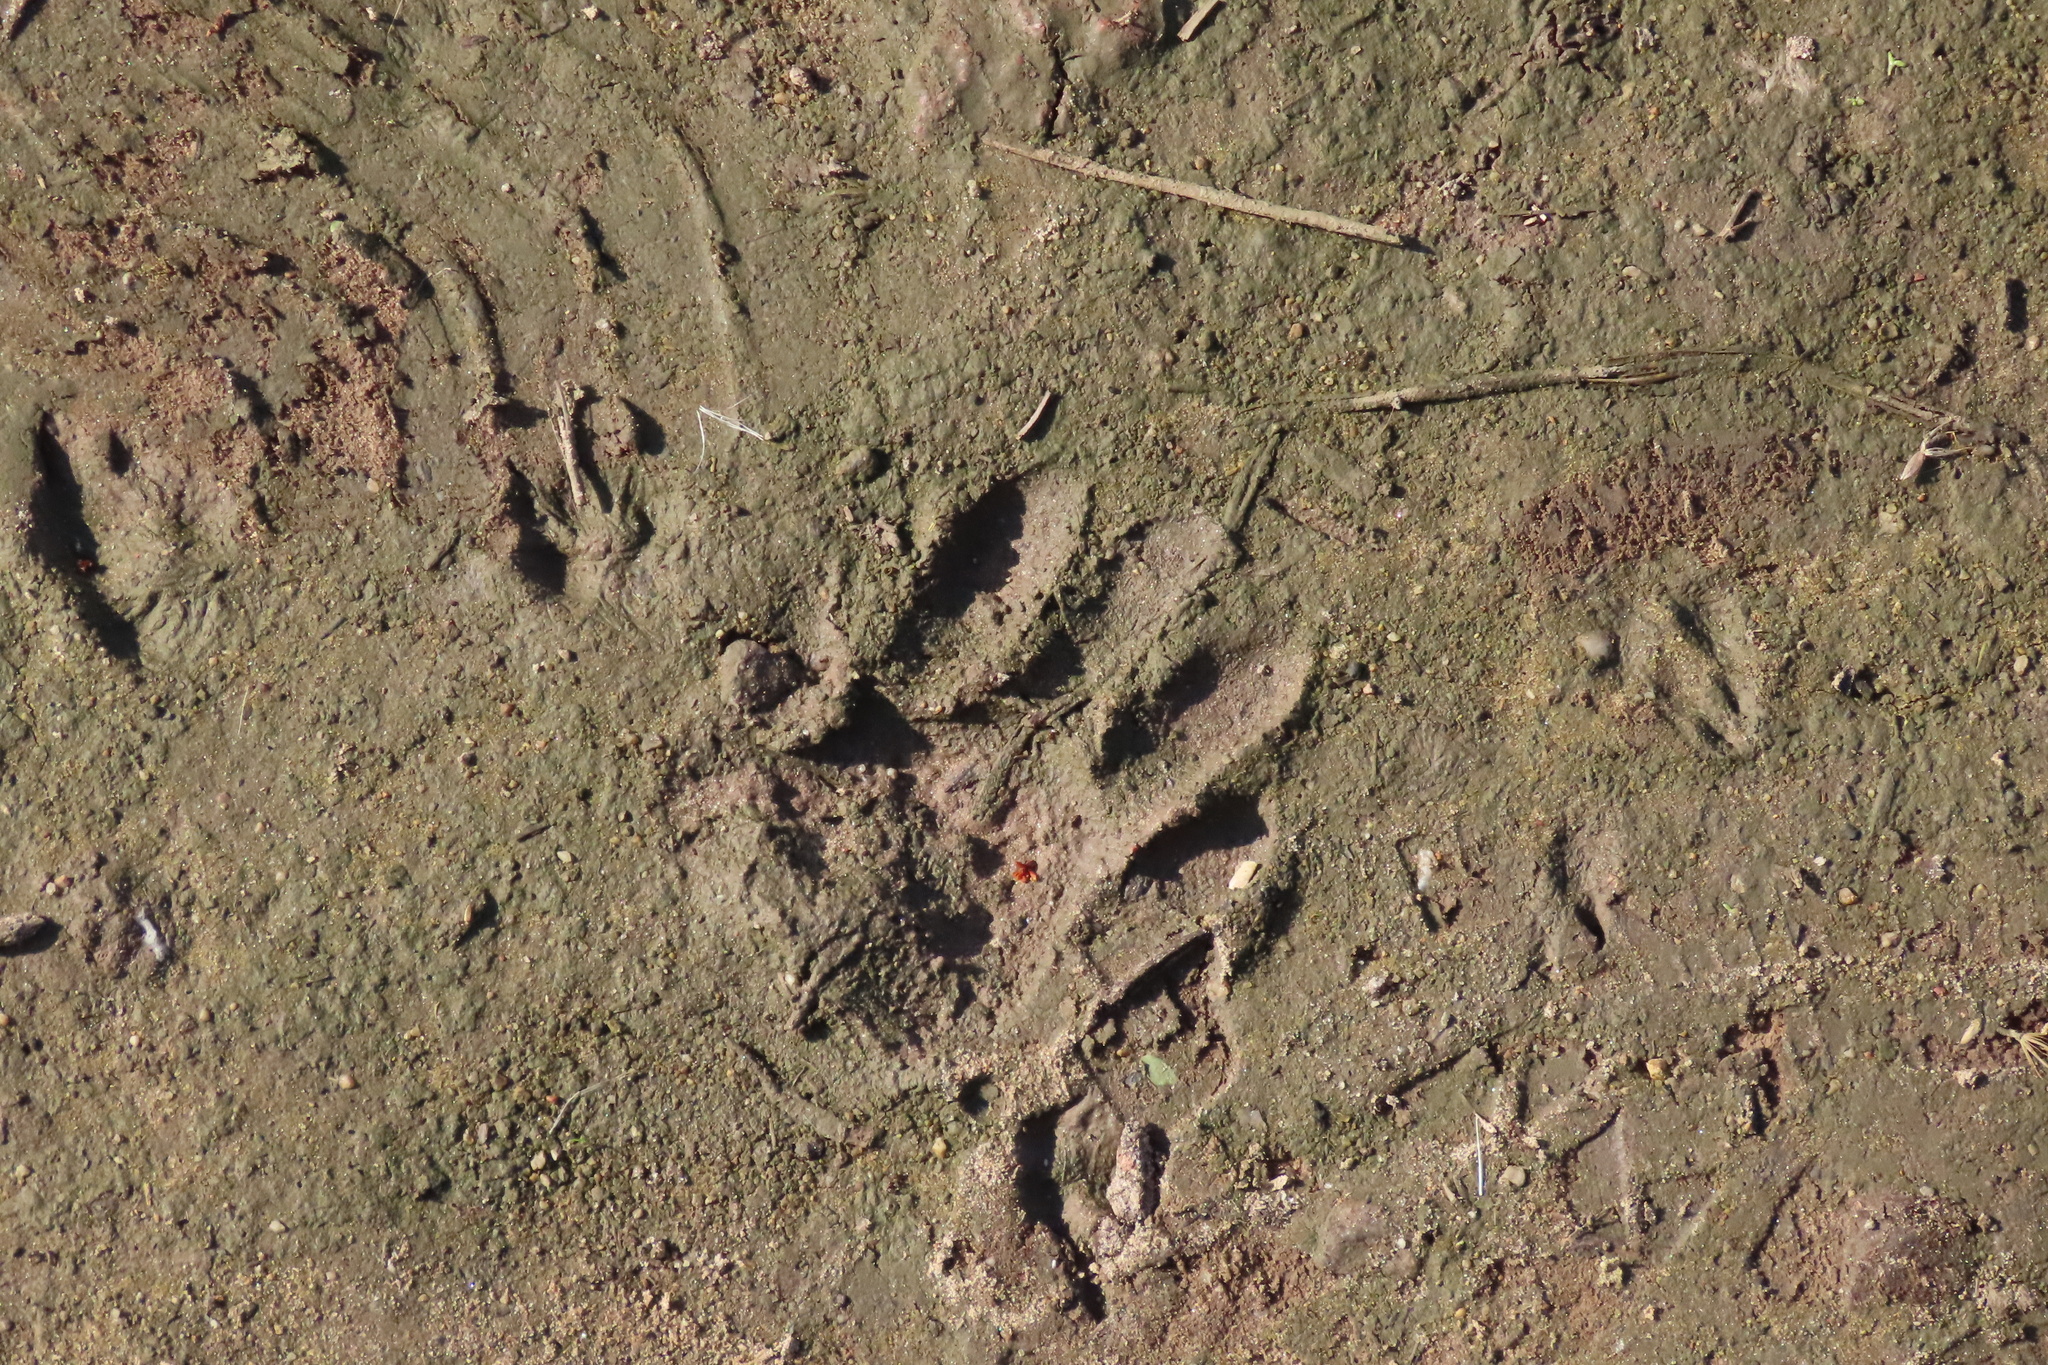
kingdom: Animalia
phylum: Chordata
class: Mammalia
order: Carnivora
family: Procyonidae
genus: Procyon
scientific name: Procyon lotor
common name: Raccoon
